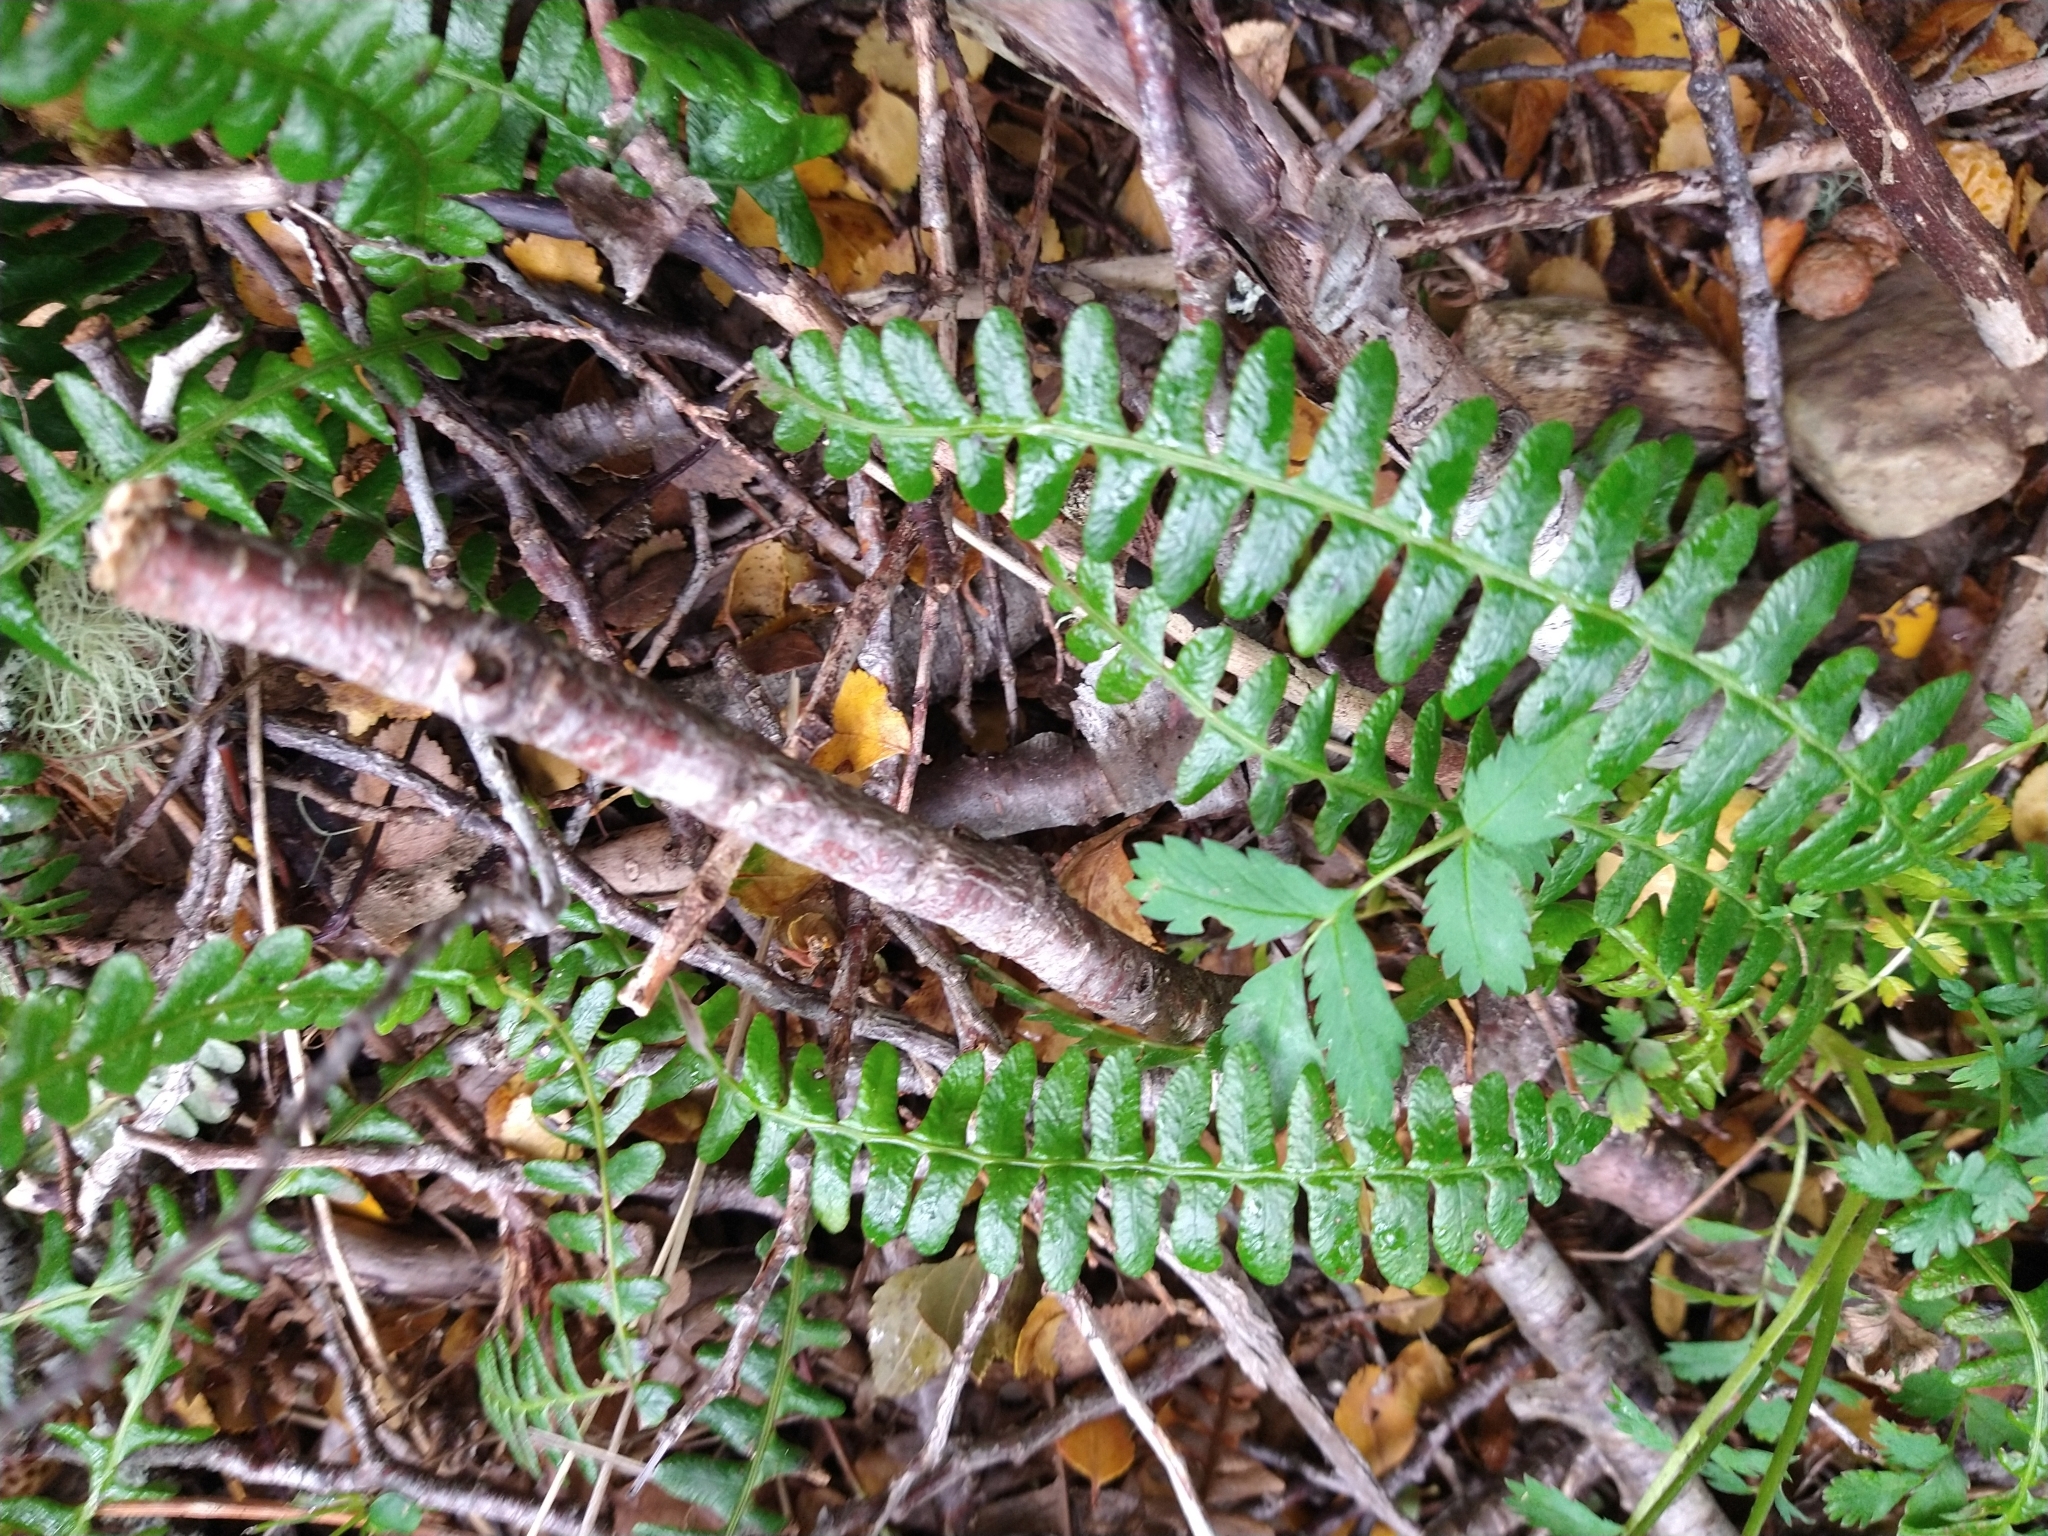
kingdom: Plantae
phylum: Tracheophyta
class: Polypodiopsida
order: Polypodiales
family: Blechnaceae
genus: Austroblechnum
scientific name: Austroblechnum penna-marina
